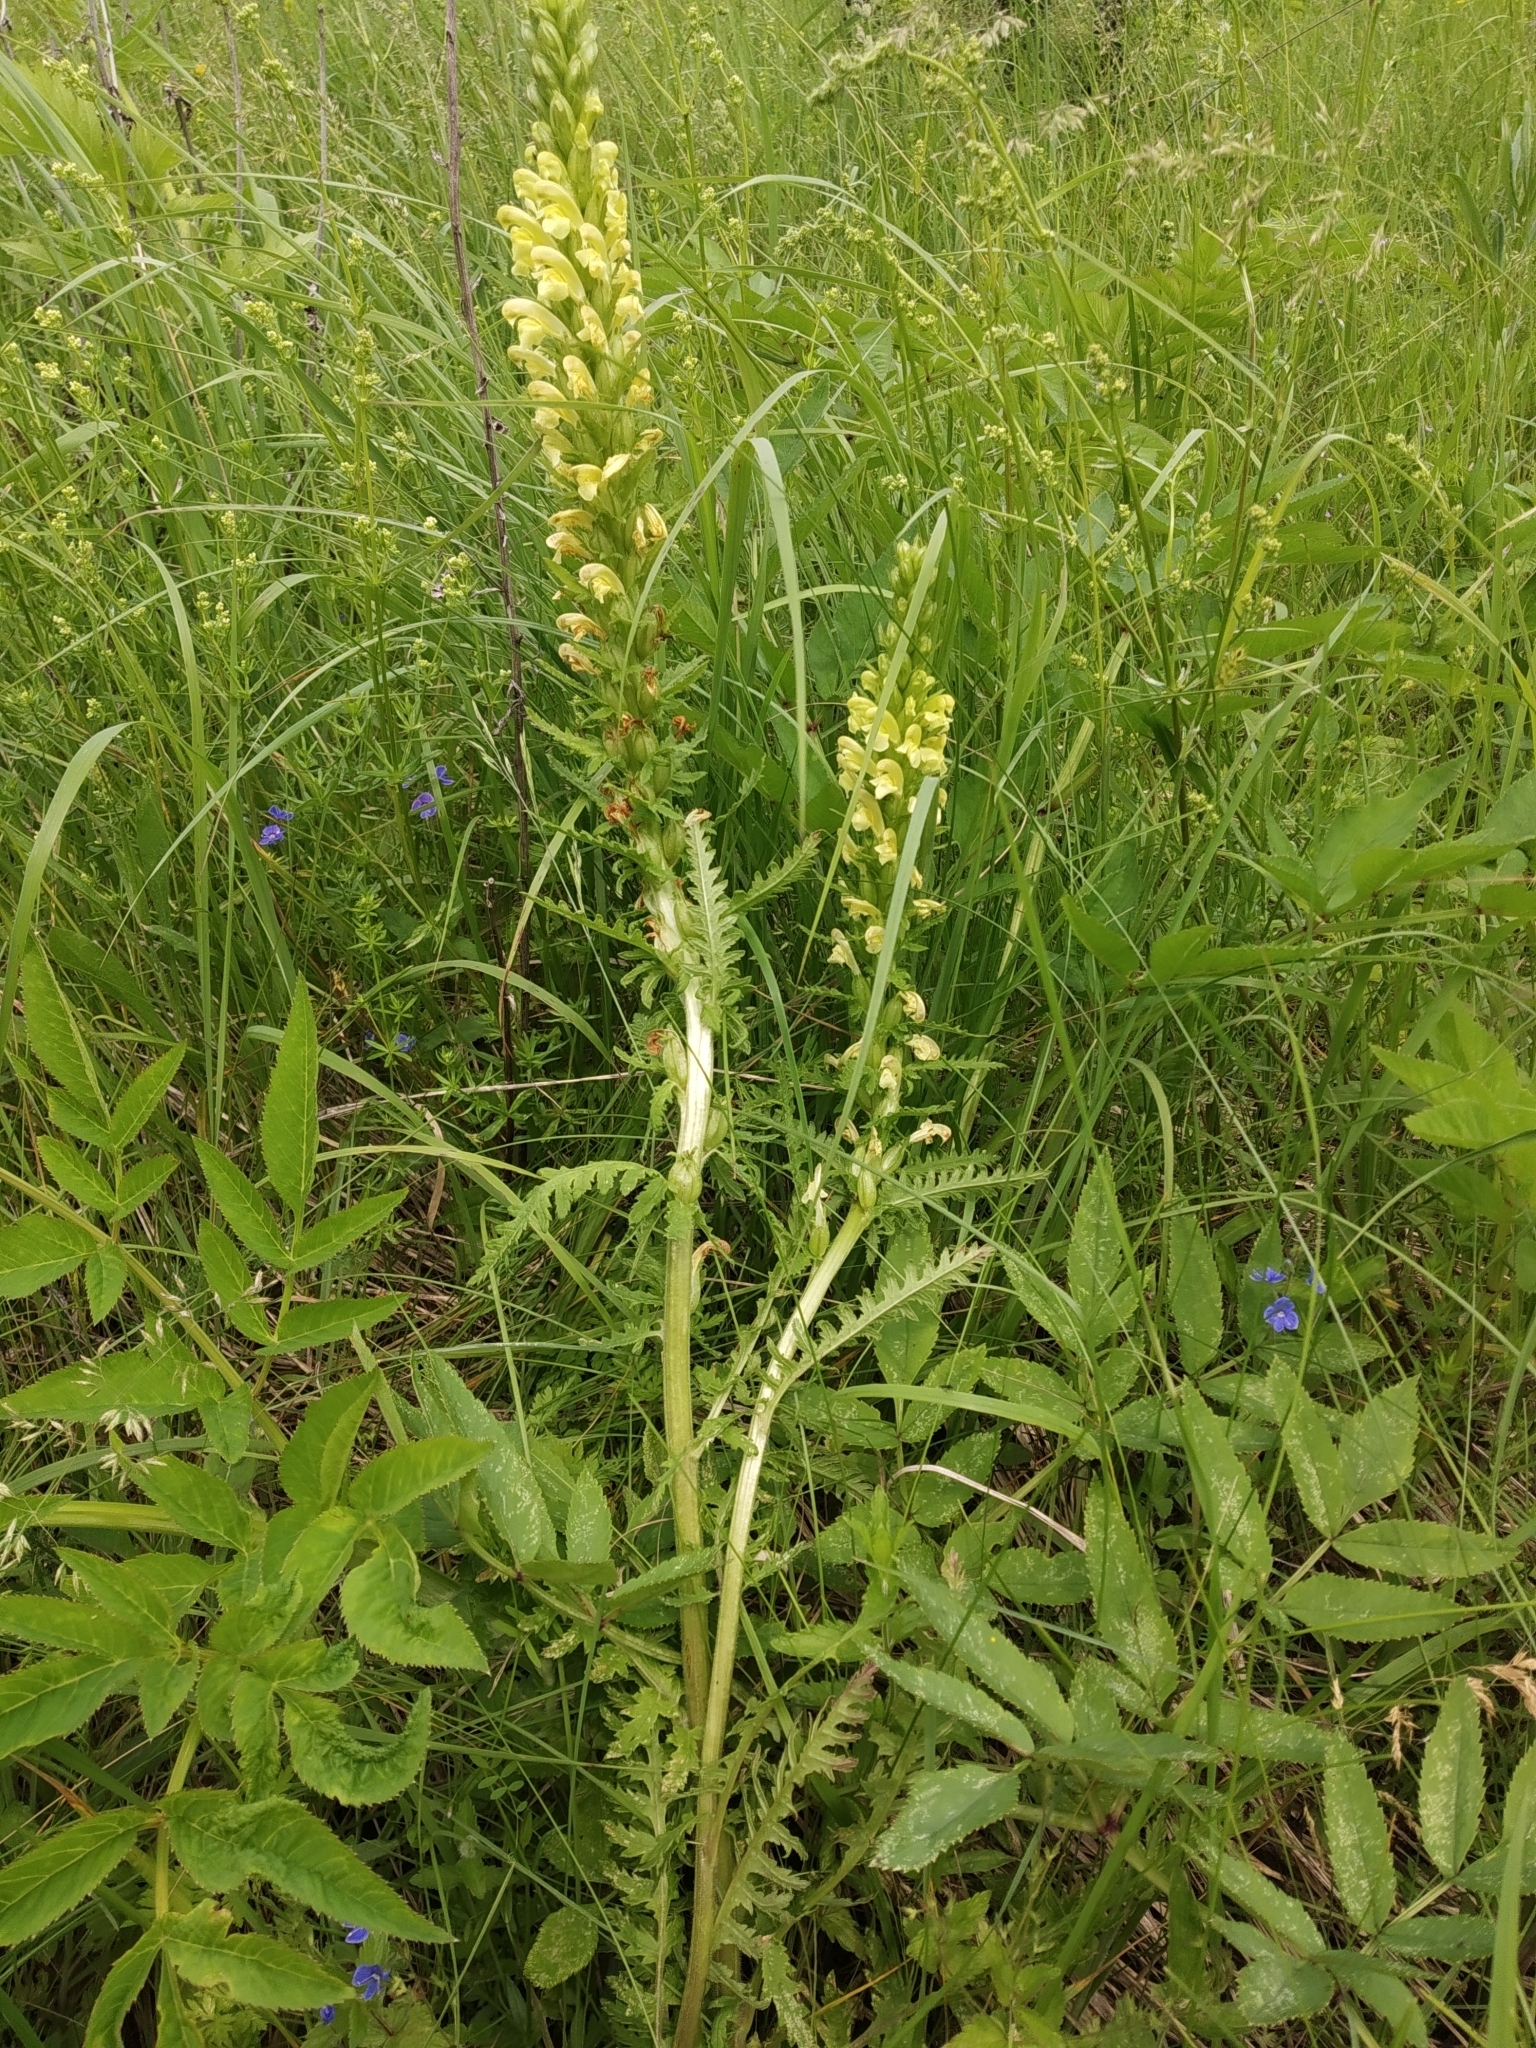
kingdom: Plantae
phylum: Tracheophyta
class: Magnoliopsida
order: Lamiales
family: Orobanchaceae
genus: Pedicularis
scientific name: Pedicularis kaufmannii
